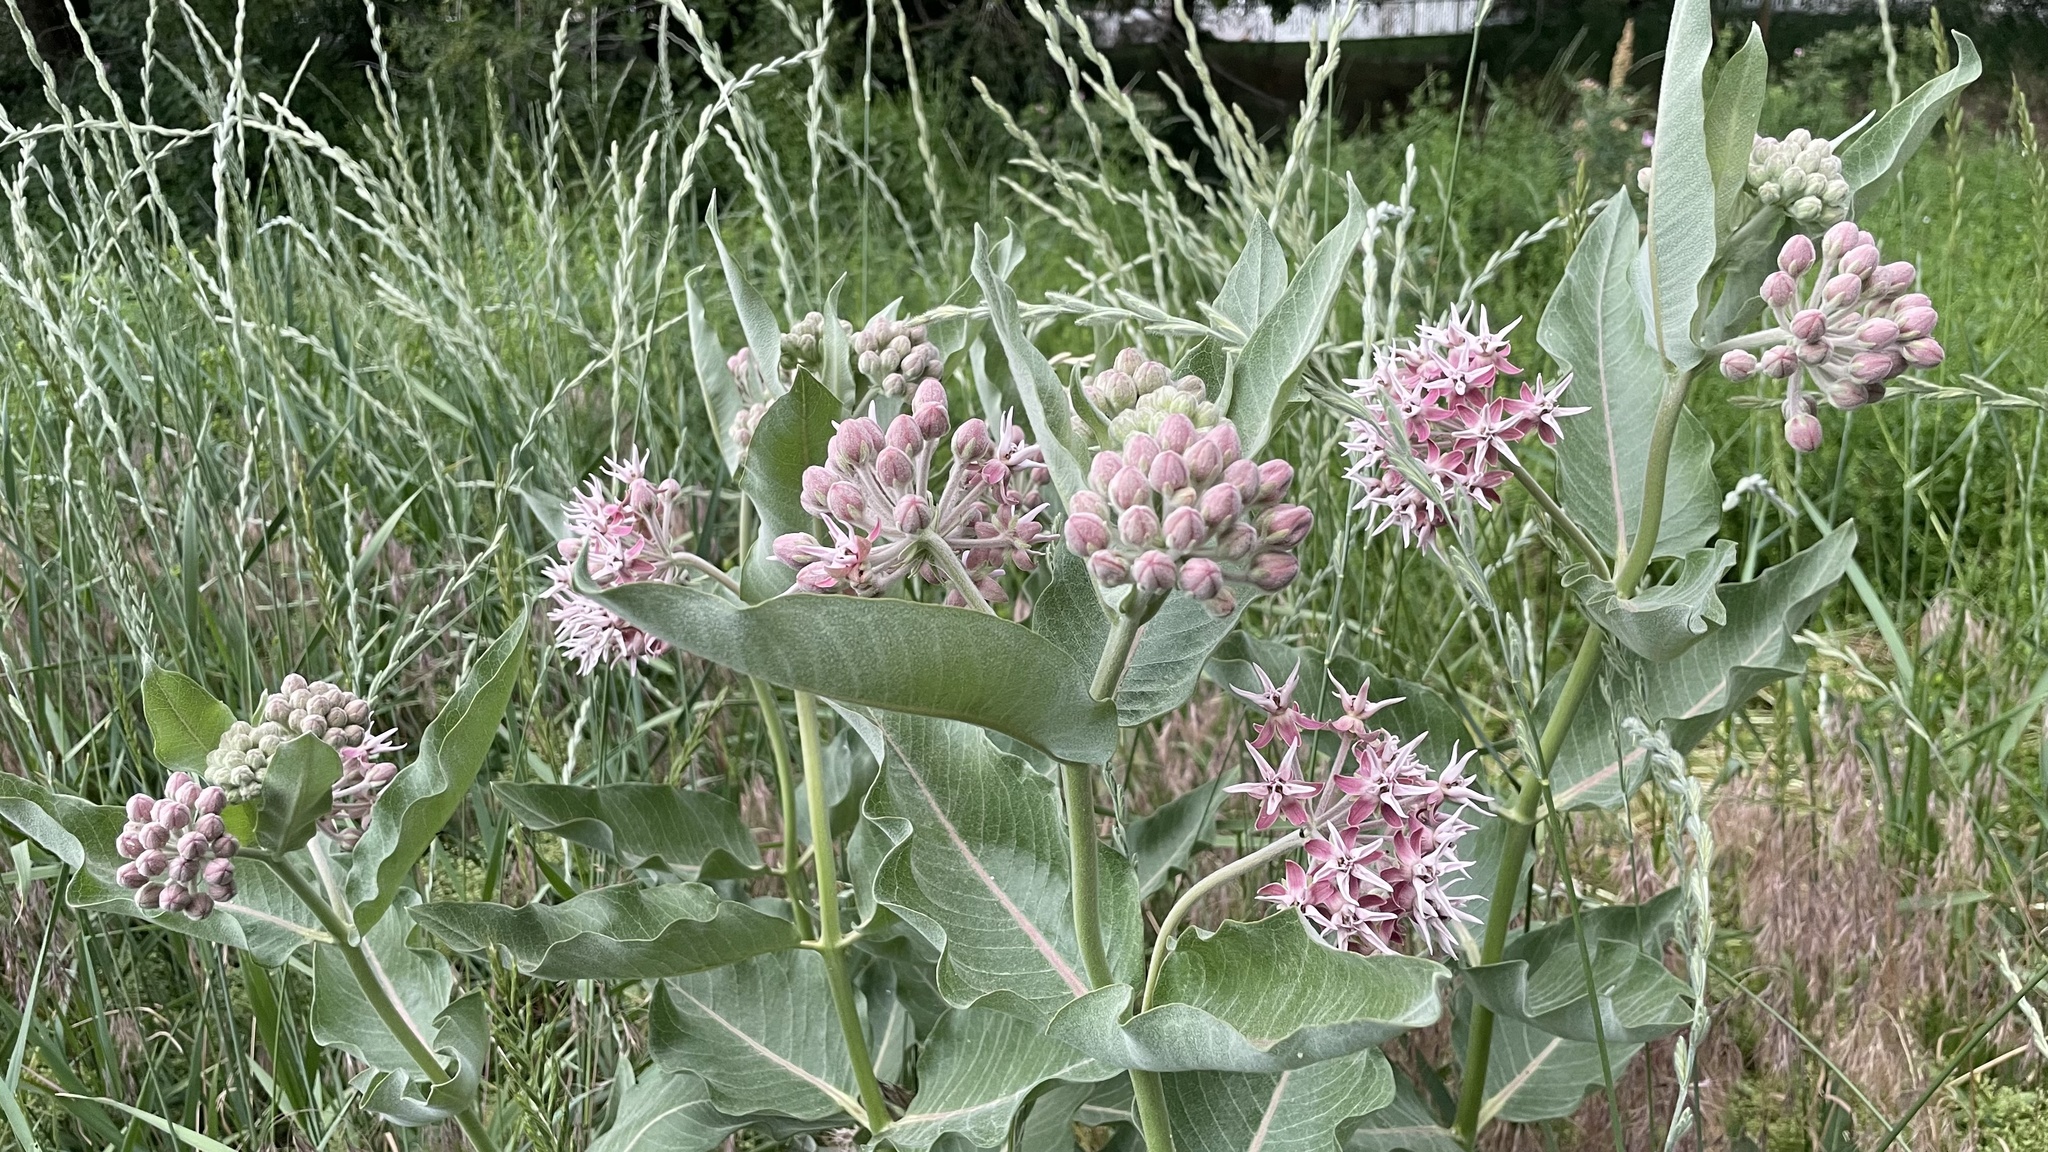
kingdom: Plantae
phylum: Tracheophyta
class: Magnoliopsida
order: Gentianales
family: Apocynaceae
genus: Asclepias
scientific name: Asclepias speciosa
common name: Showy milkweed
